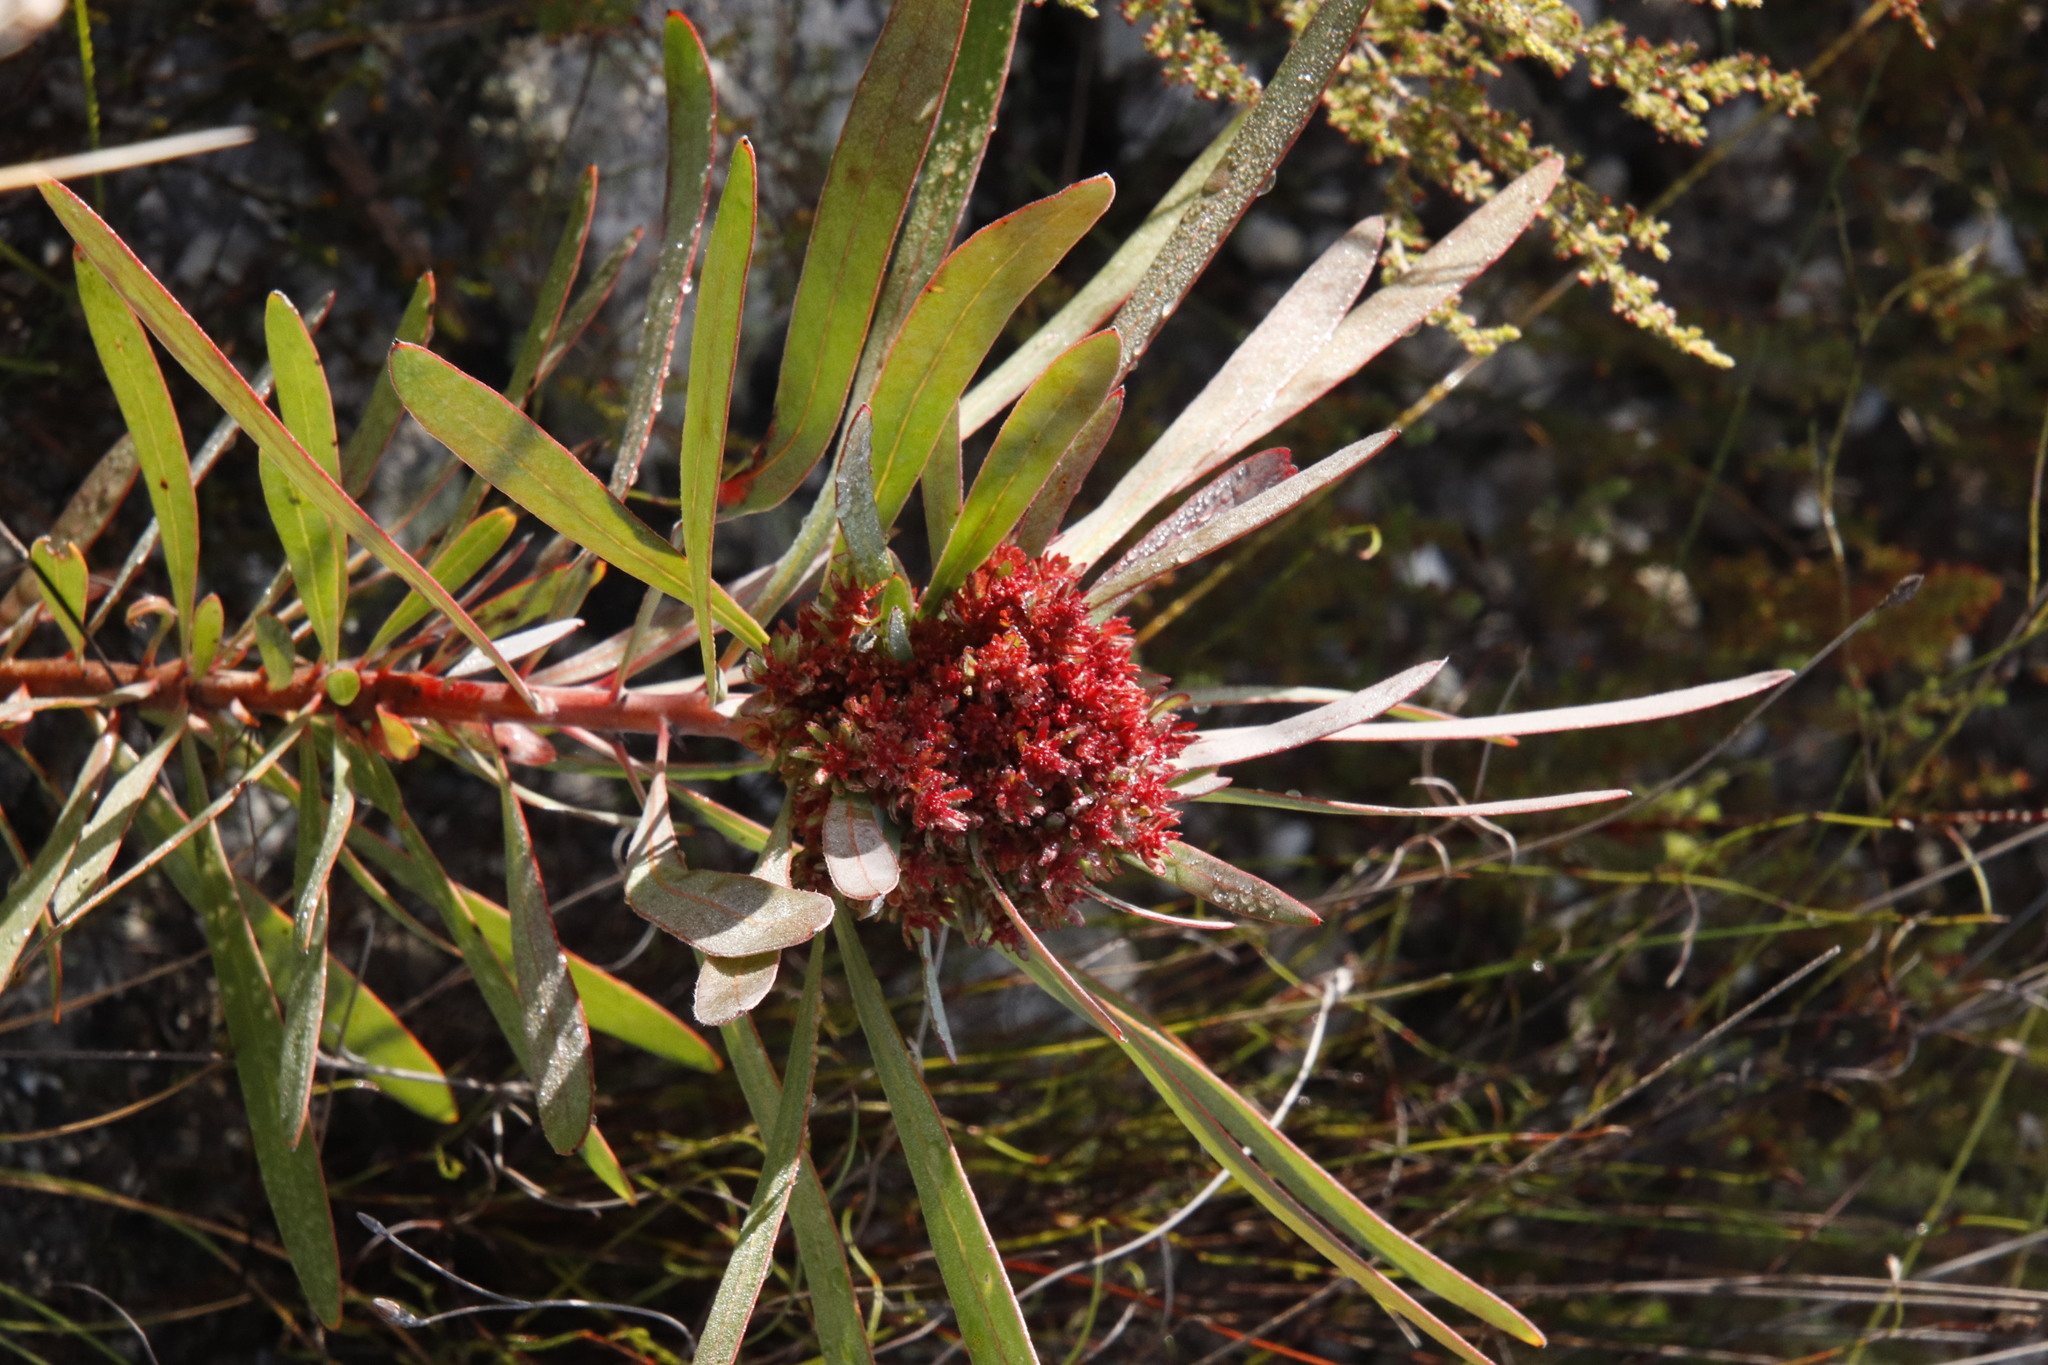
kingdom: Bacteria
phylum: Firmicutes
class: Bacilli
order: Acholeplasmatales
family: Acholeplasmataceae
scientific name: Acholeplasmataceae
